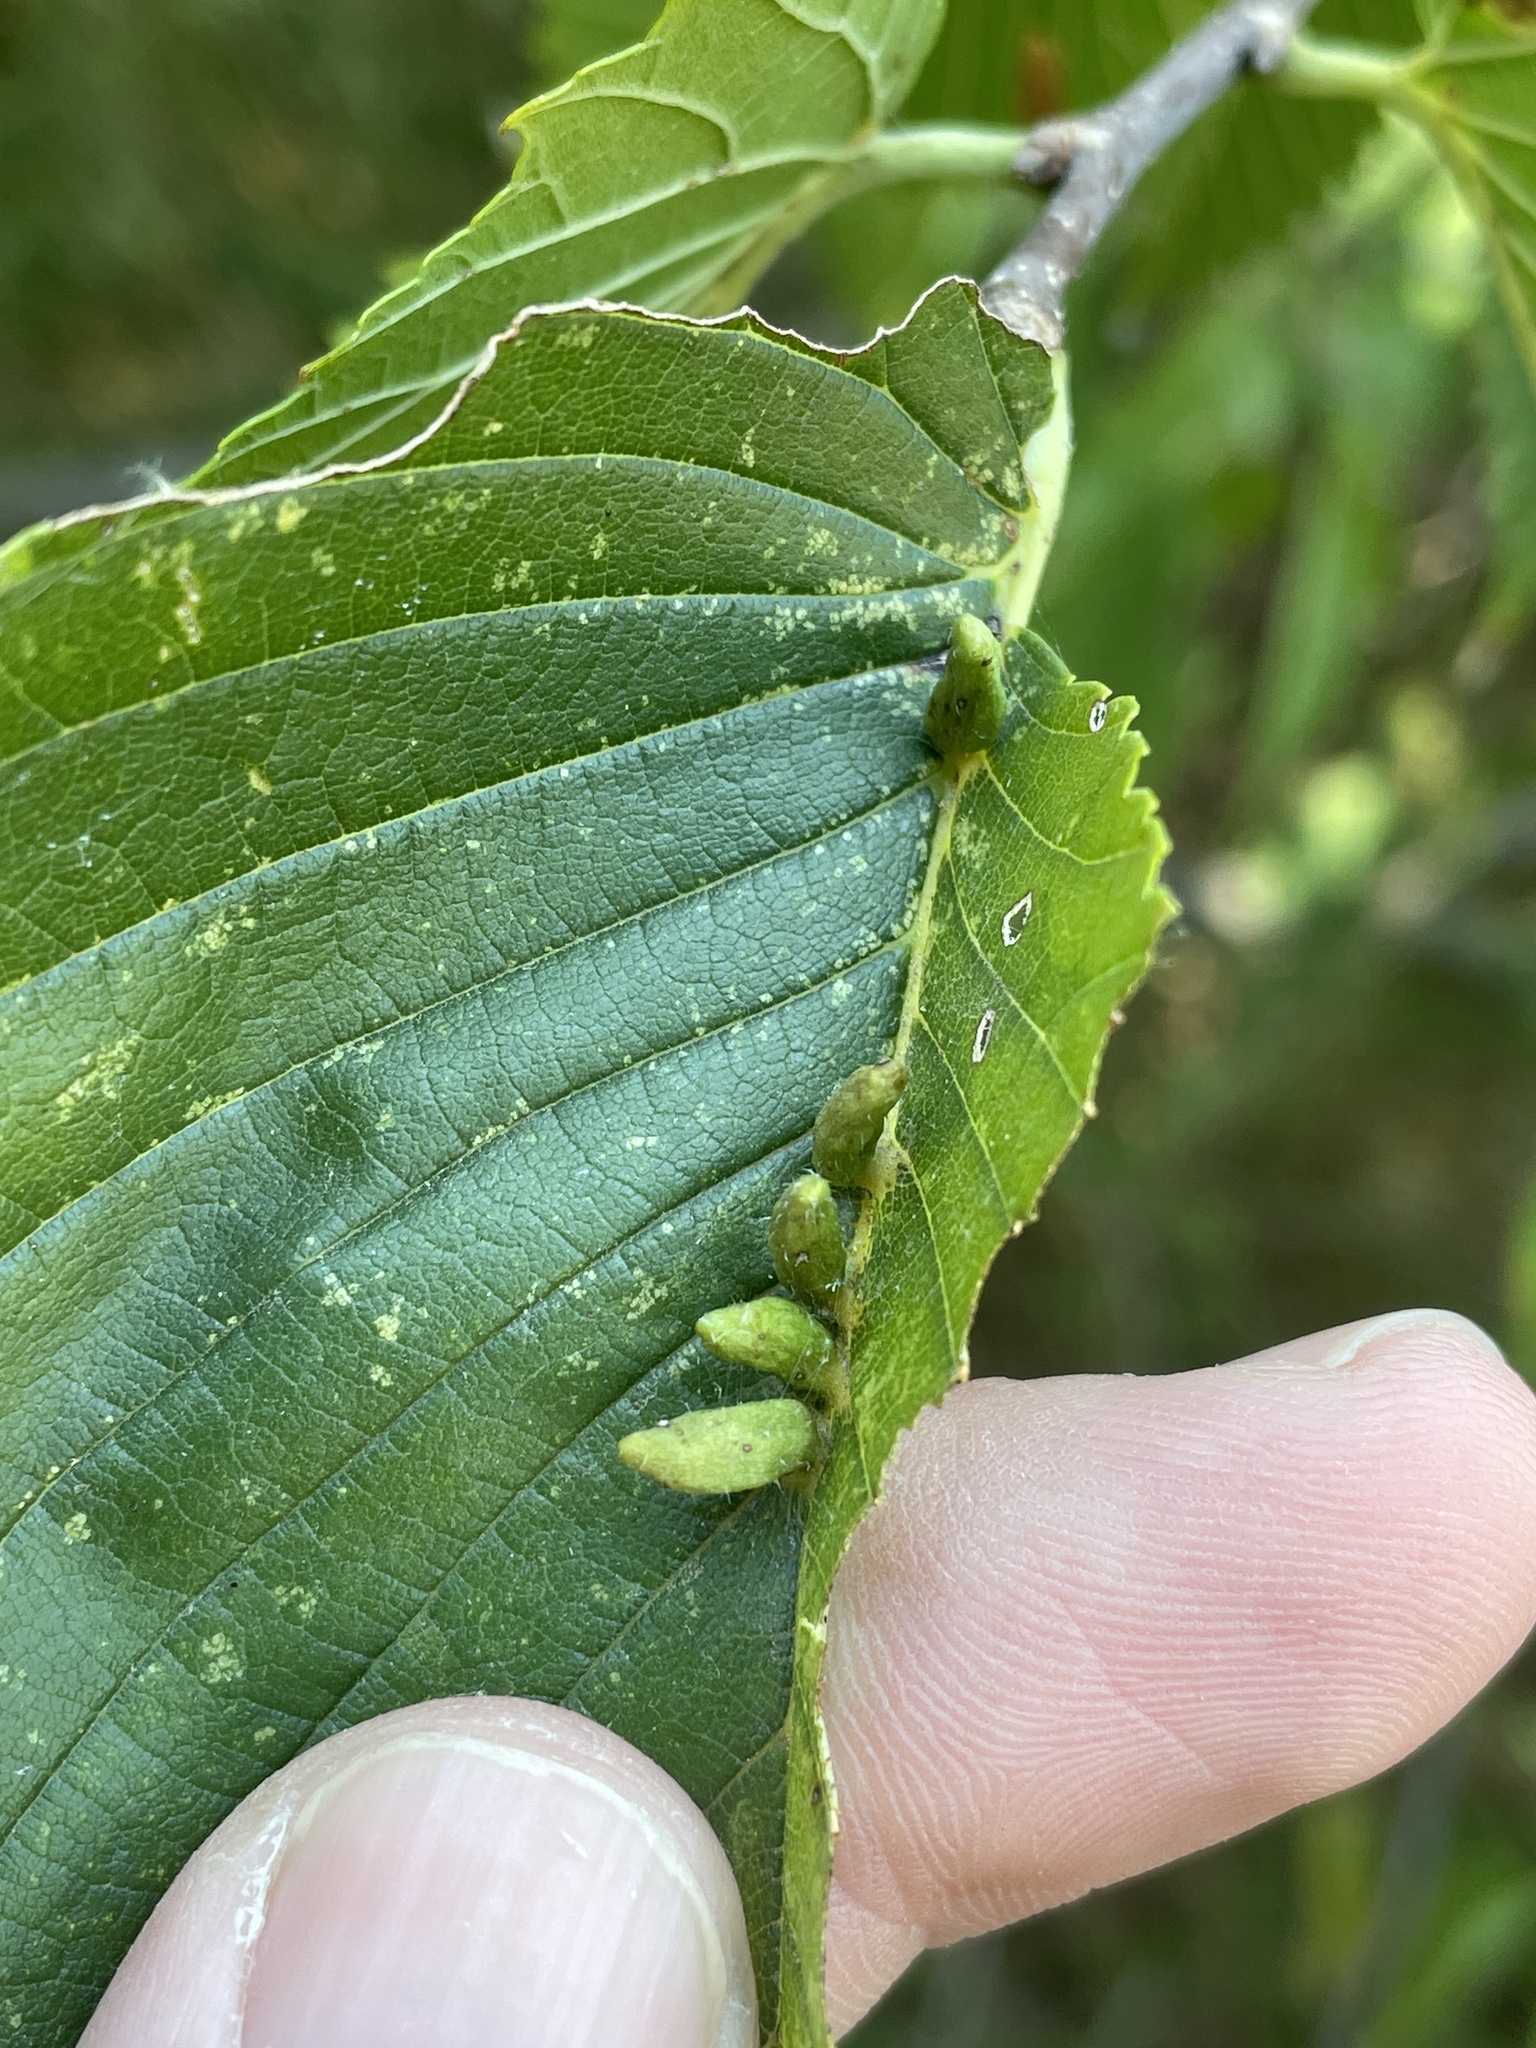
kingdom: Animalia
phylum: Arthropoda
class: Arachnida
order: Trombidiformes
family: Eriophyidae
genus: Aceria
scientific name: Aceria
